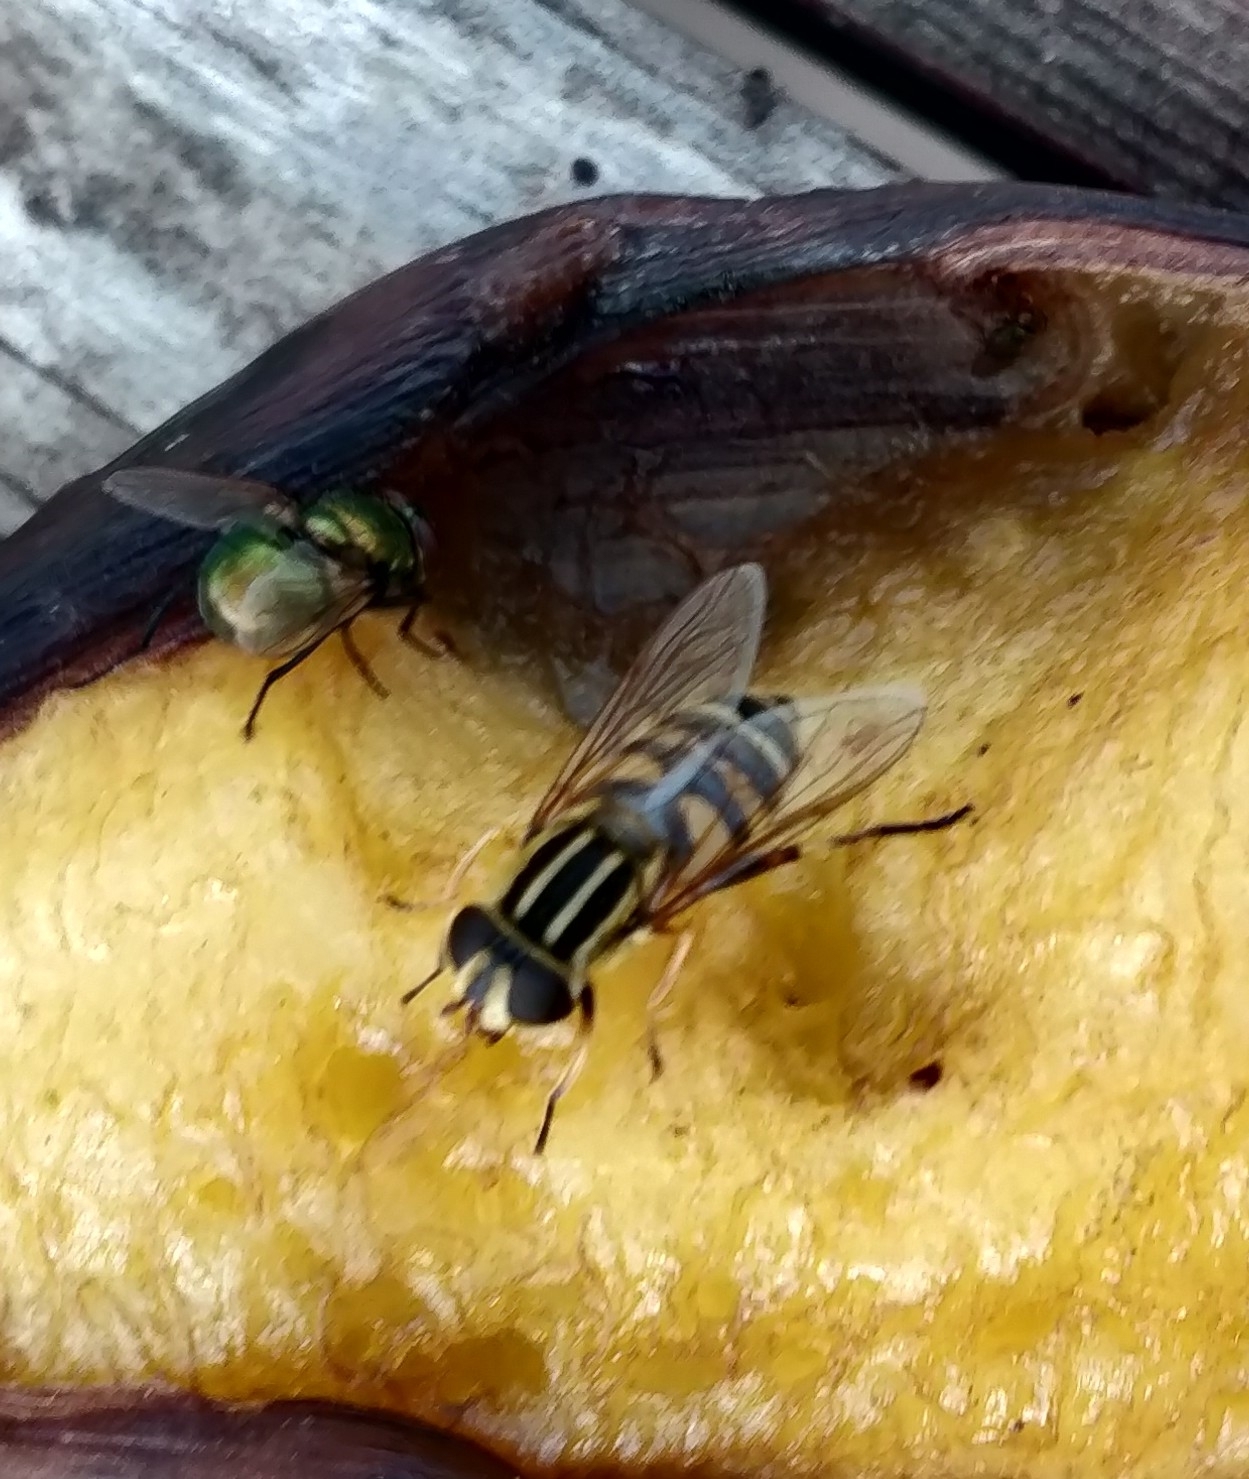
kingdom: Animalia
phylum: Arthropoda
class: Insecta
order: Diptera
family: Syrphidae
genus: Helophilus
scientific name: Helophilus fasciatus
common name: Narrow-headed marsh fly
